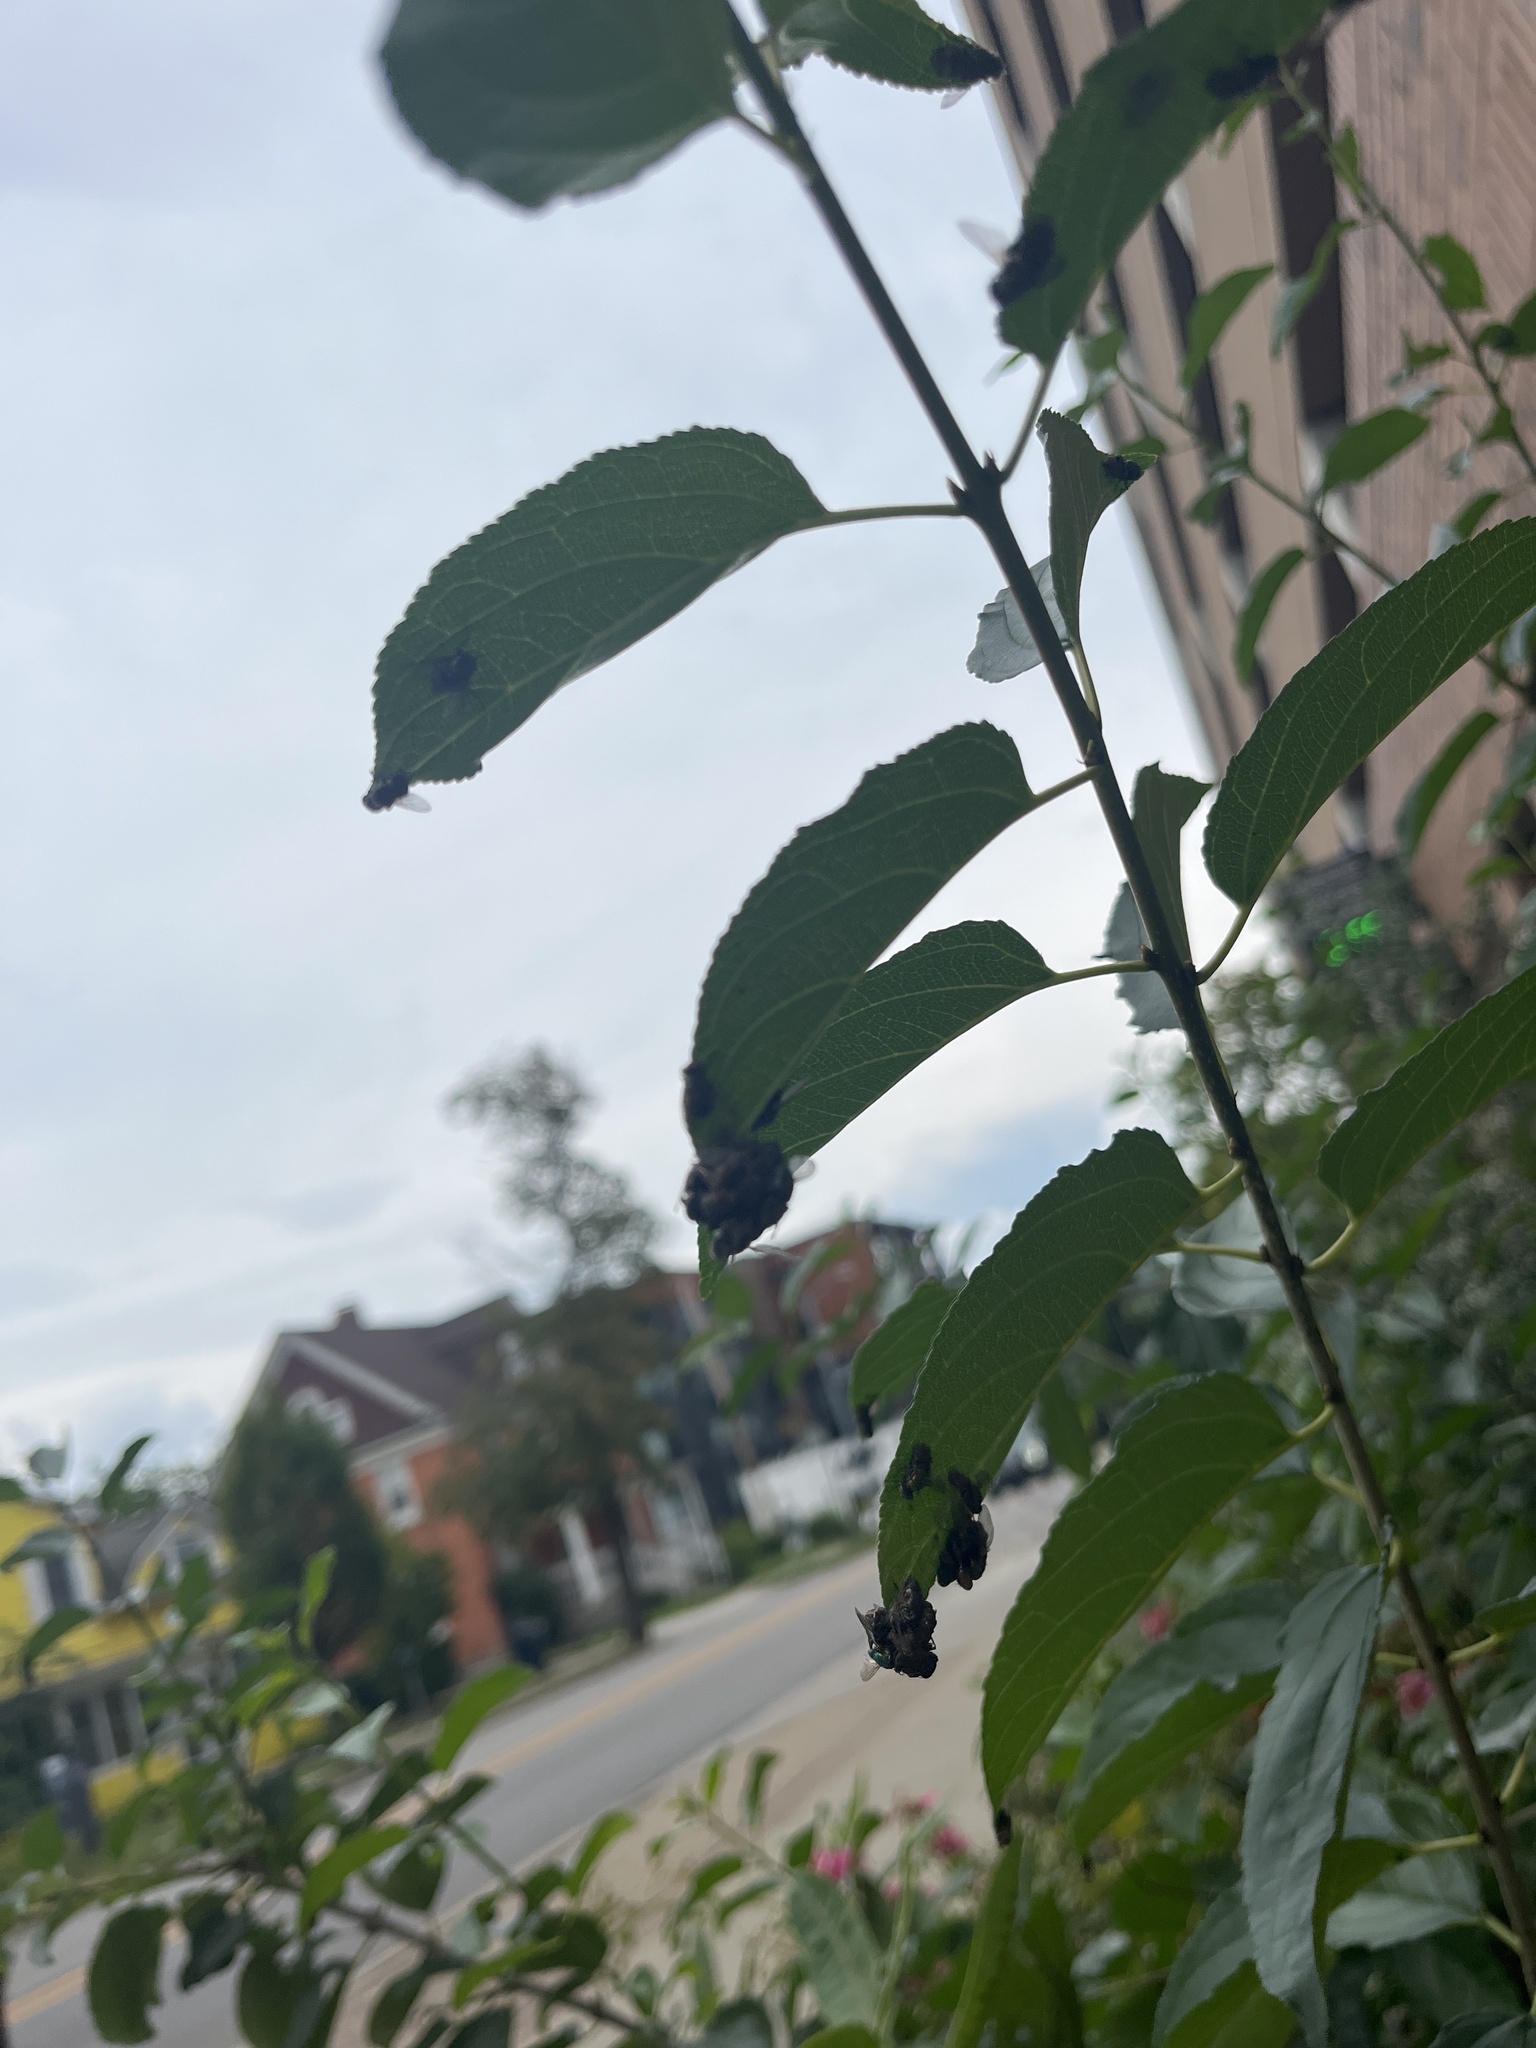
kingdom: Animalia
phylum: Arthropoda
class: Insecta
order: Diptera
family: Calliphoridae
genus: Lucilia
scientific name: Lucilia sericata
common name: Blow fly
